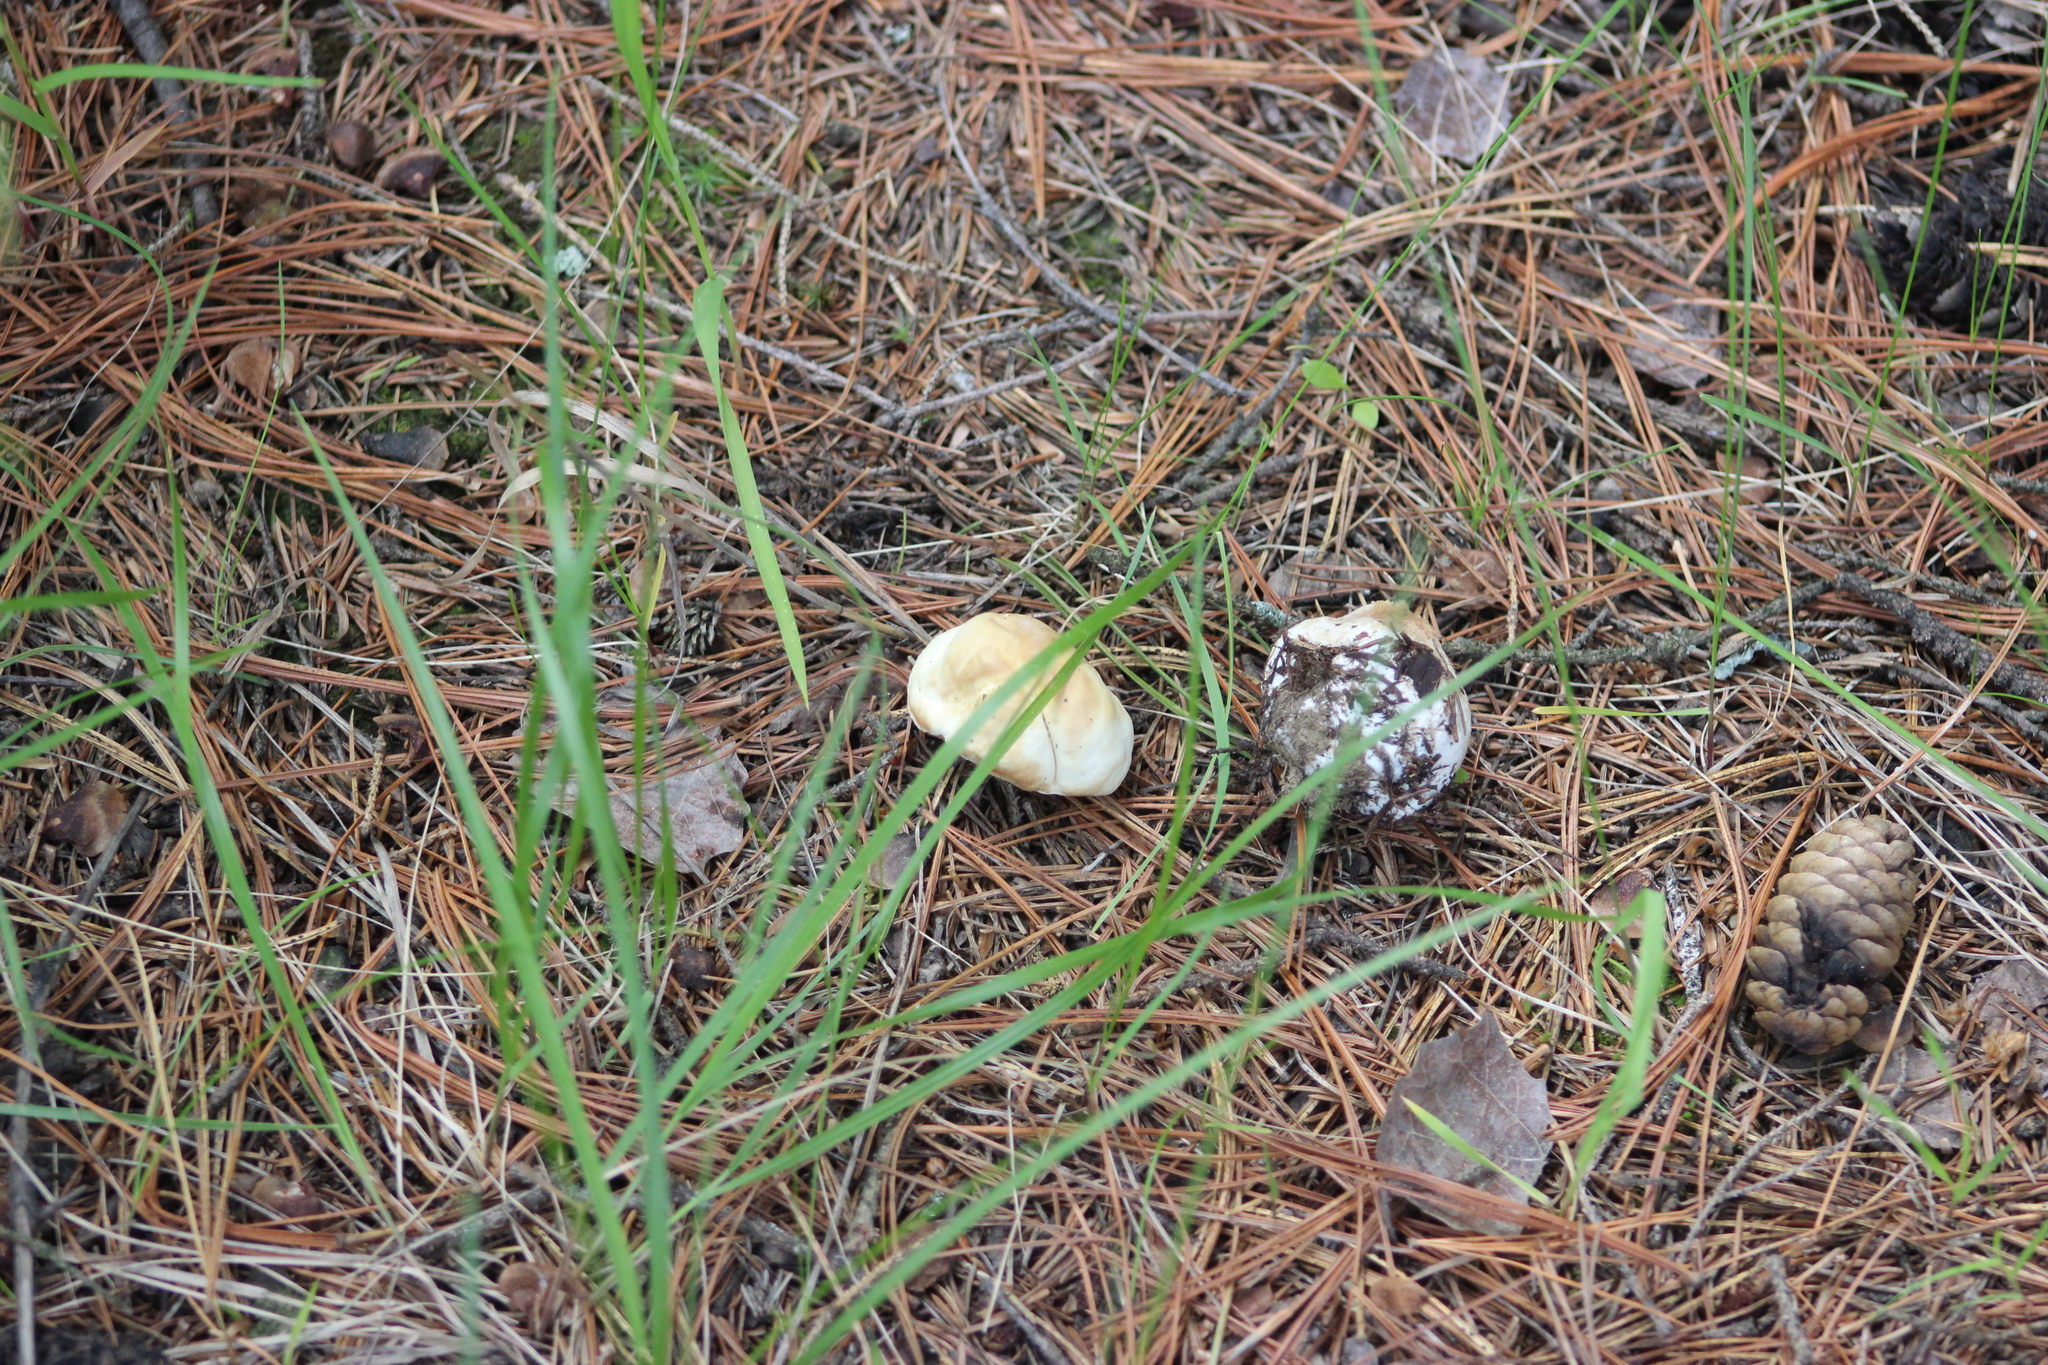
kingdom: Fungi
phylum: Basidiomycota
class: Agaricomycetes
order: Boletales
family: Boletaceae
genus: Boletus
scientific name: Boletus edulis
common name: Cep
